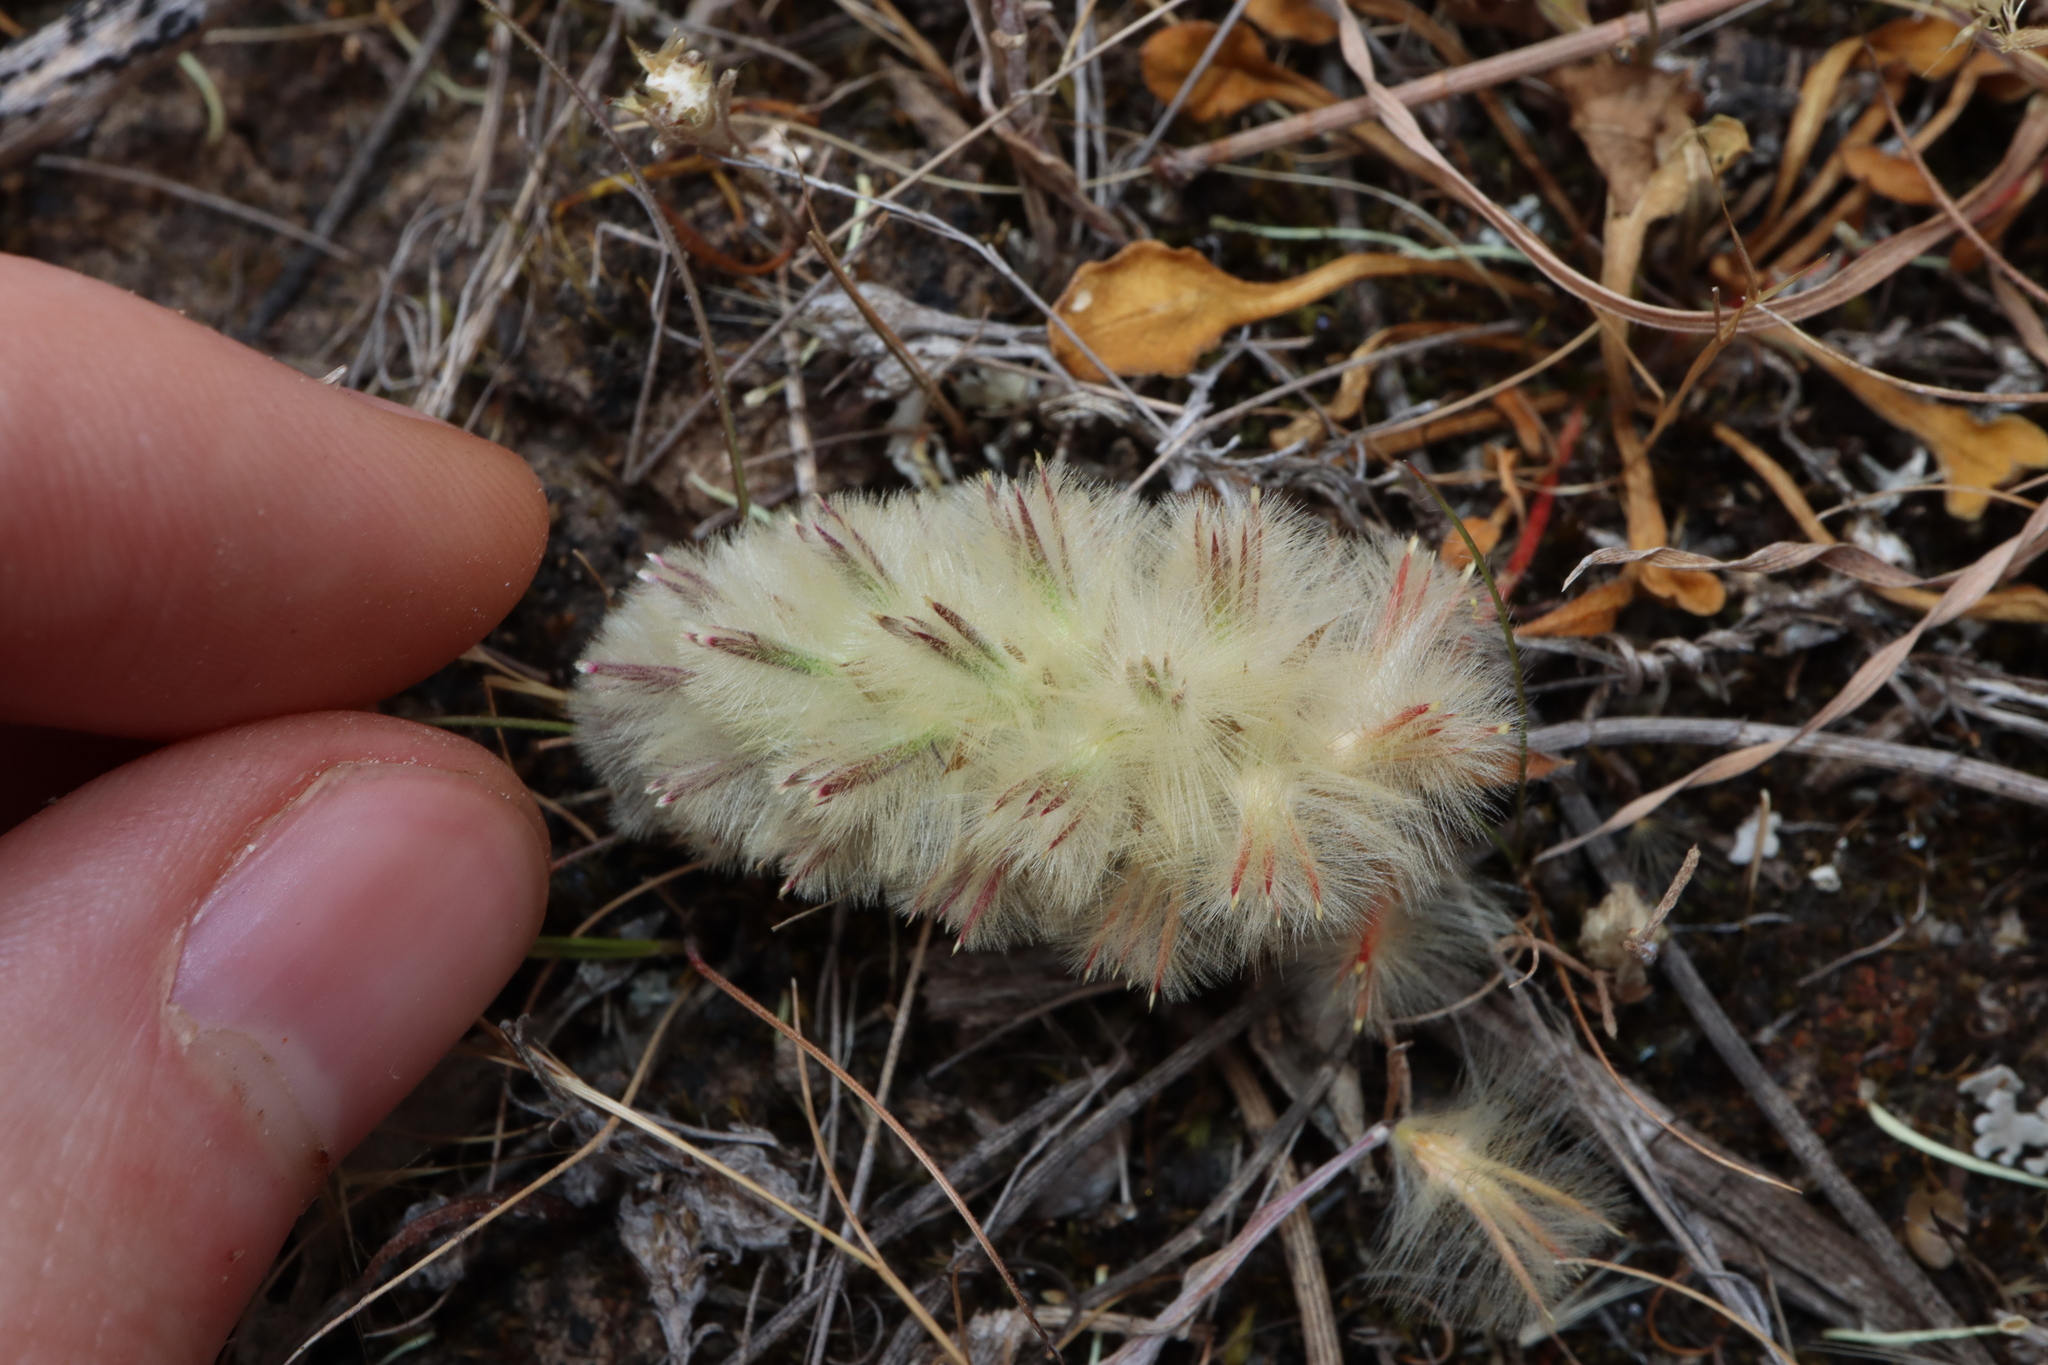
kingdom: Plantae
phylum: Tracheophyta
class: Magnoliopsida
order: Caryophyllales
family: Amaranthaceae
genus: Ptilotus
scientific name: Ptilotus spathulatus
